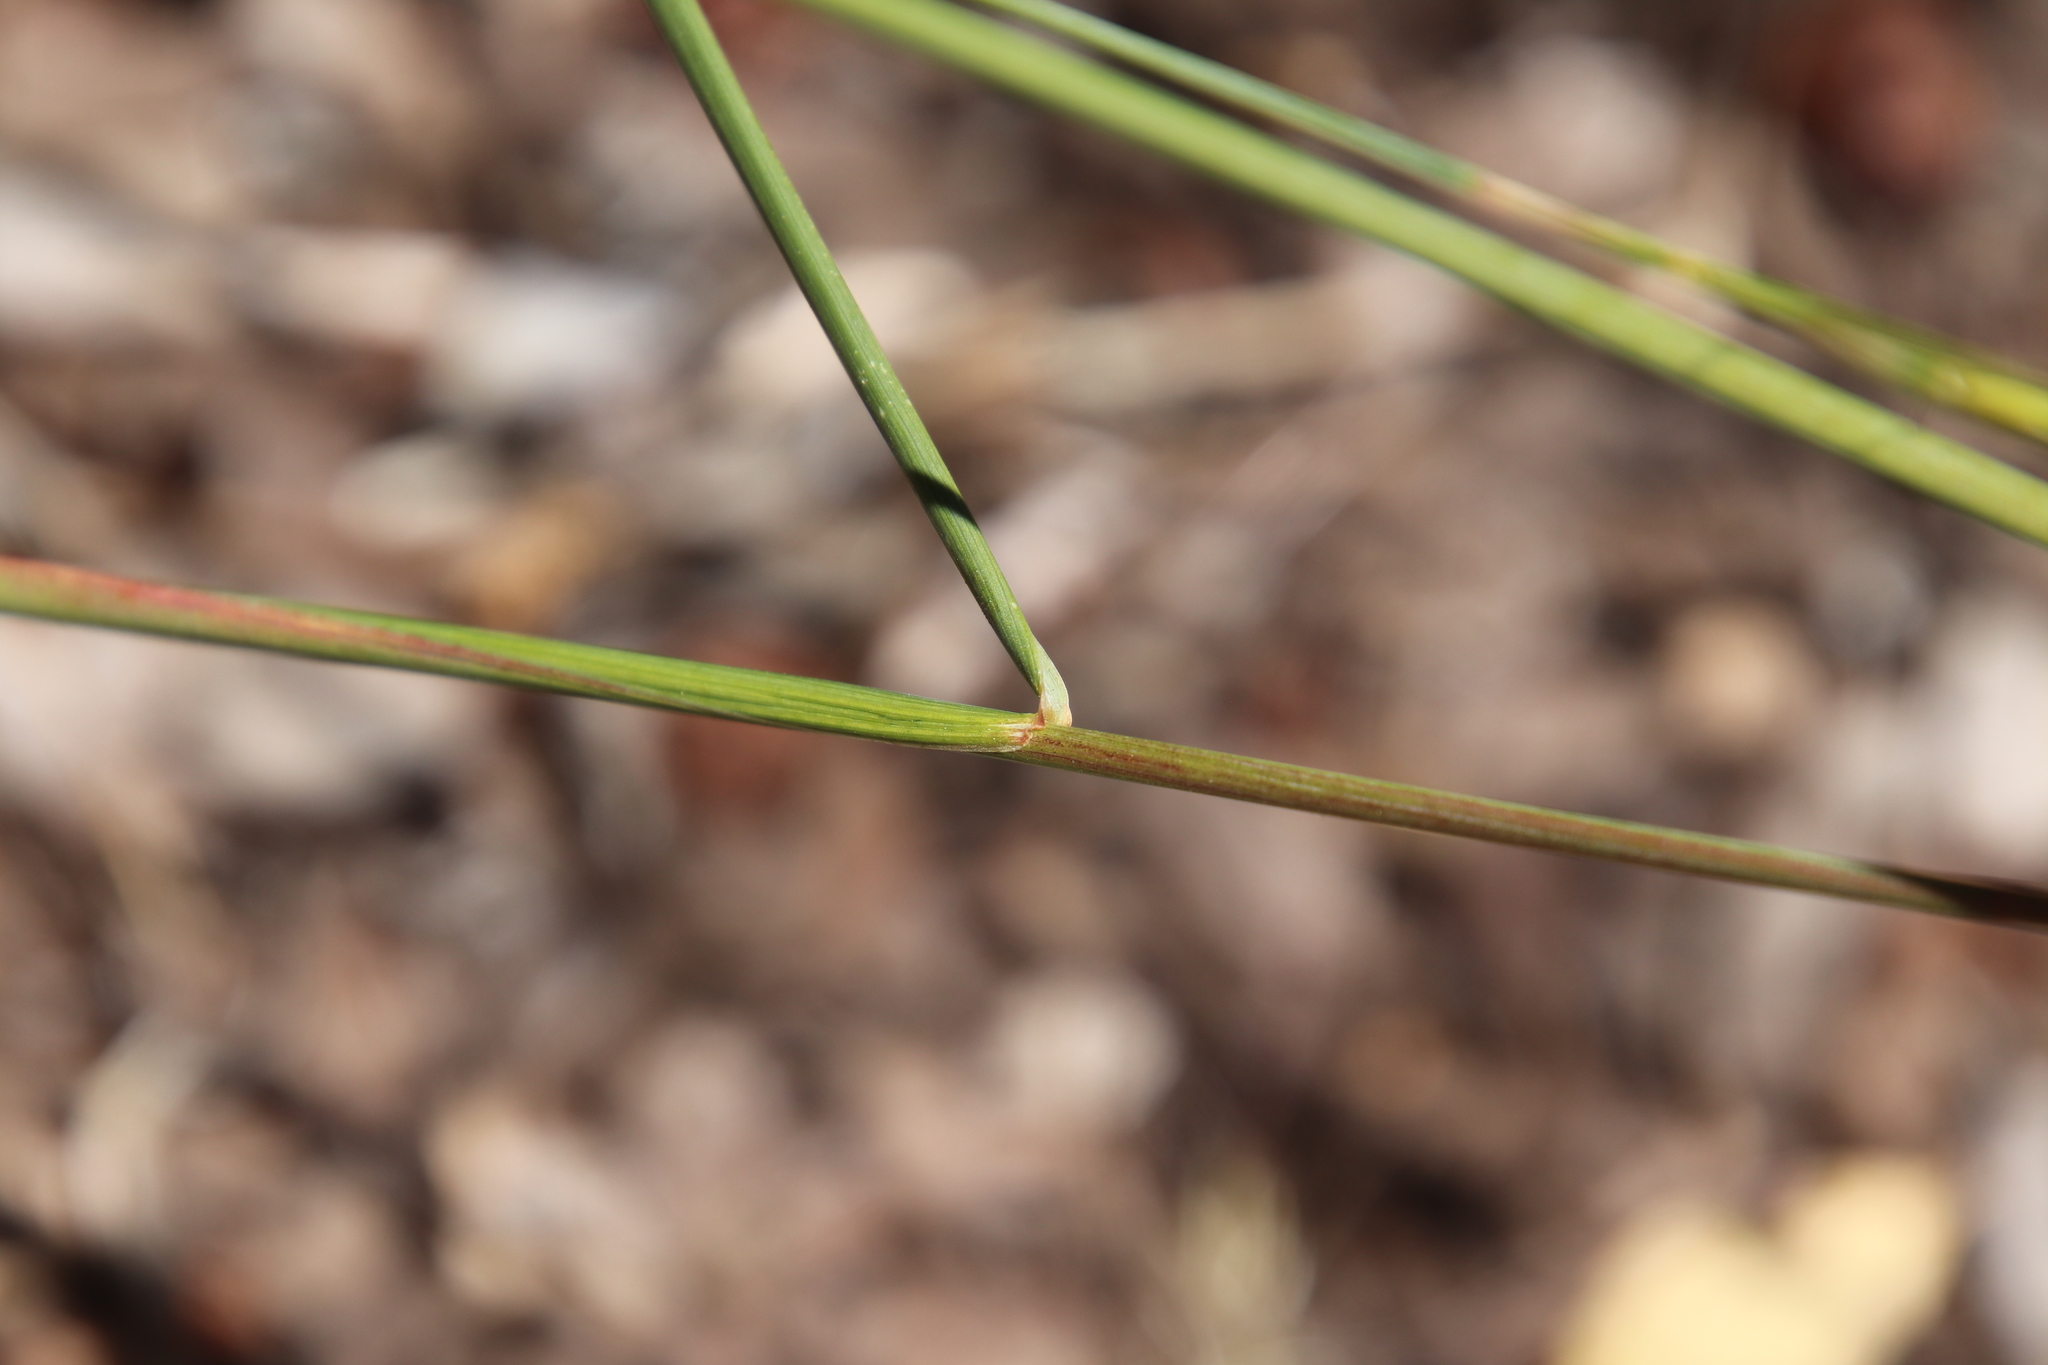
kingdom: Plantae
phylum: Tracheophyta
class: Liliopsida
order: Poales
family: Poaceae
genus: Elymus
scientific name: Elymus elymoides
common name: Bottlebrush squirreltail
